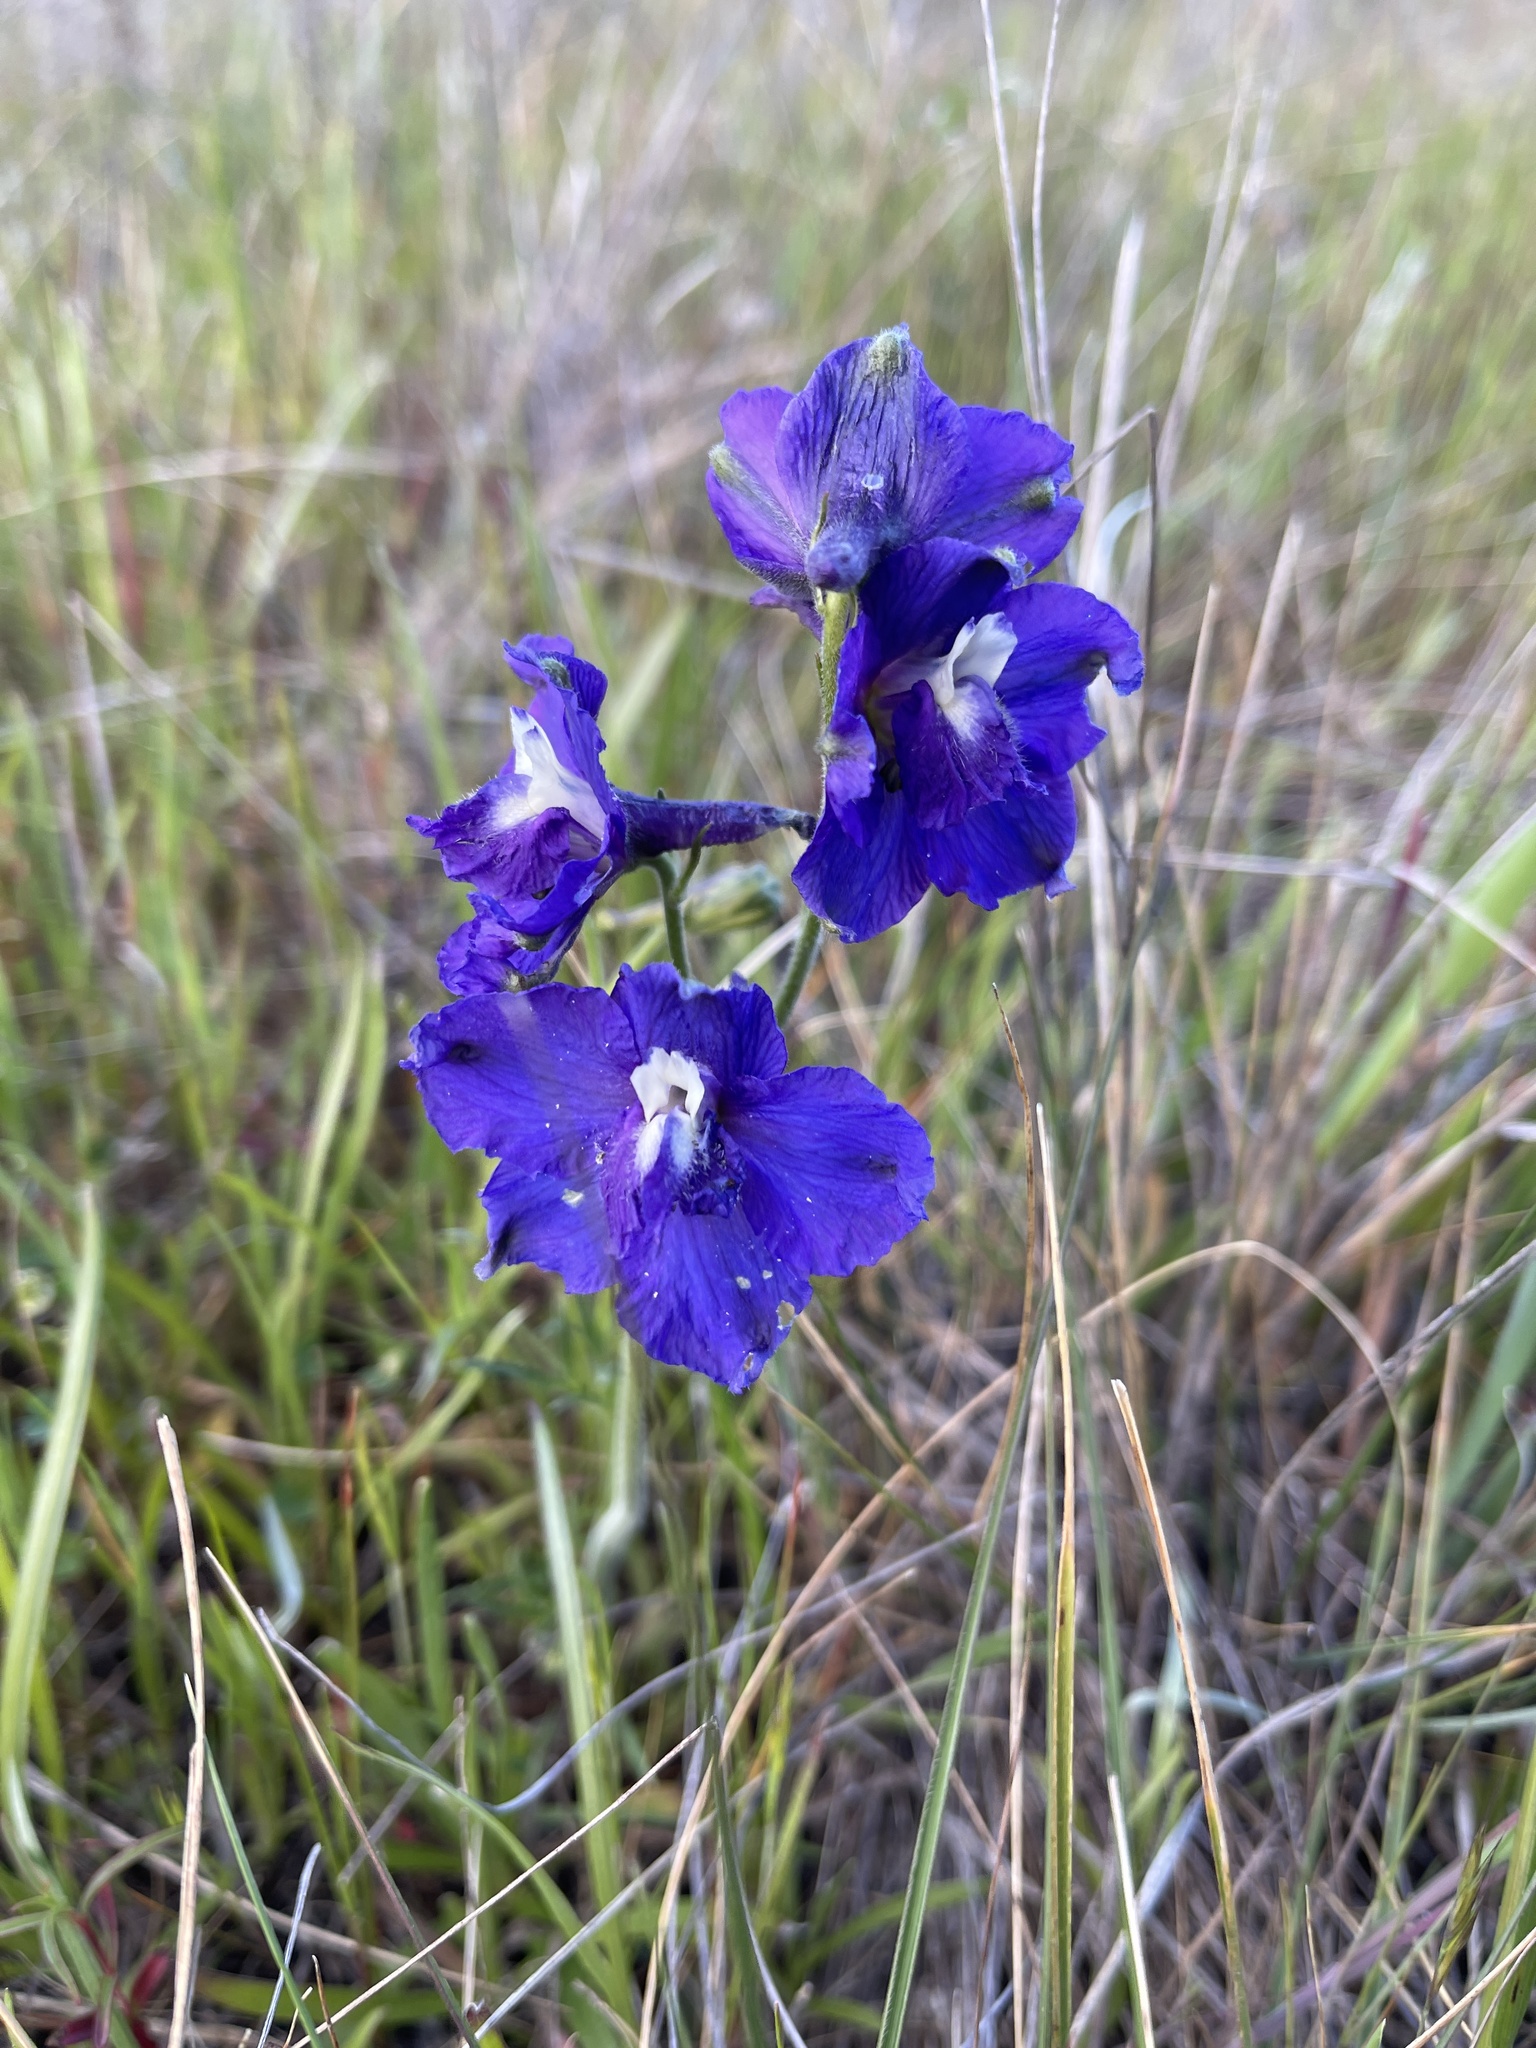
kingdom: Plantae
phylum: Tracheophyta
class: Magnoliopsida
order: Ranunculales
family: Ranunculaceae
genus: Delphinium
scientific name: Delphinium variegatum
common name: Royal larkspur
